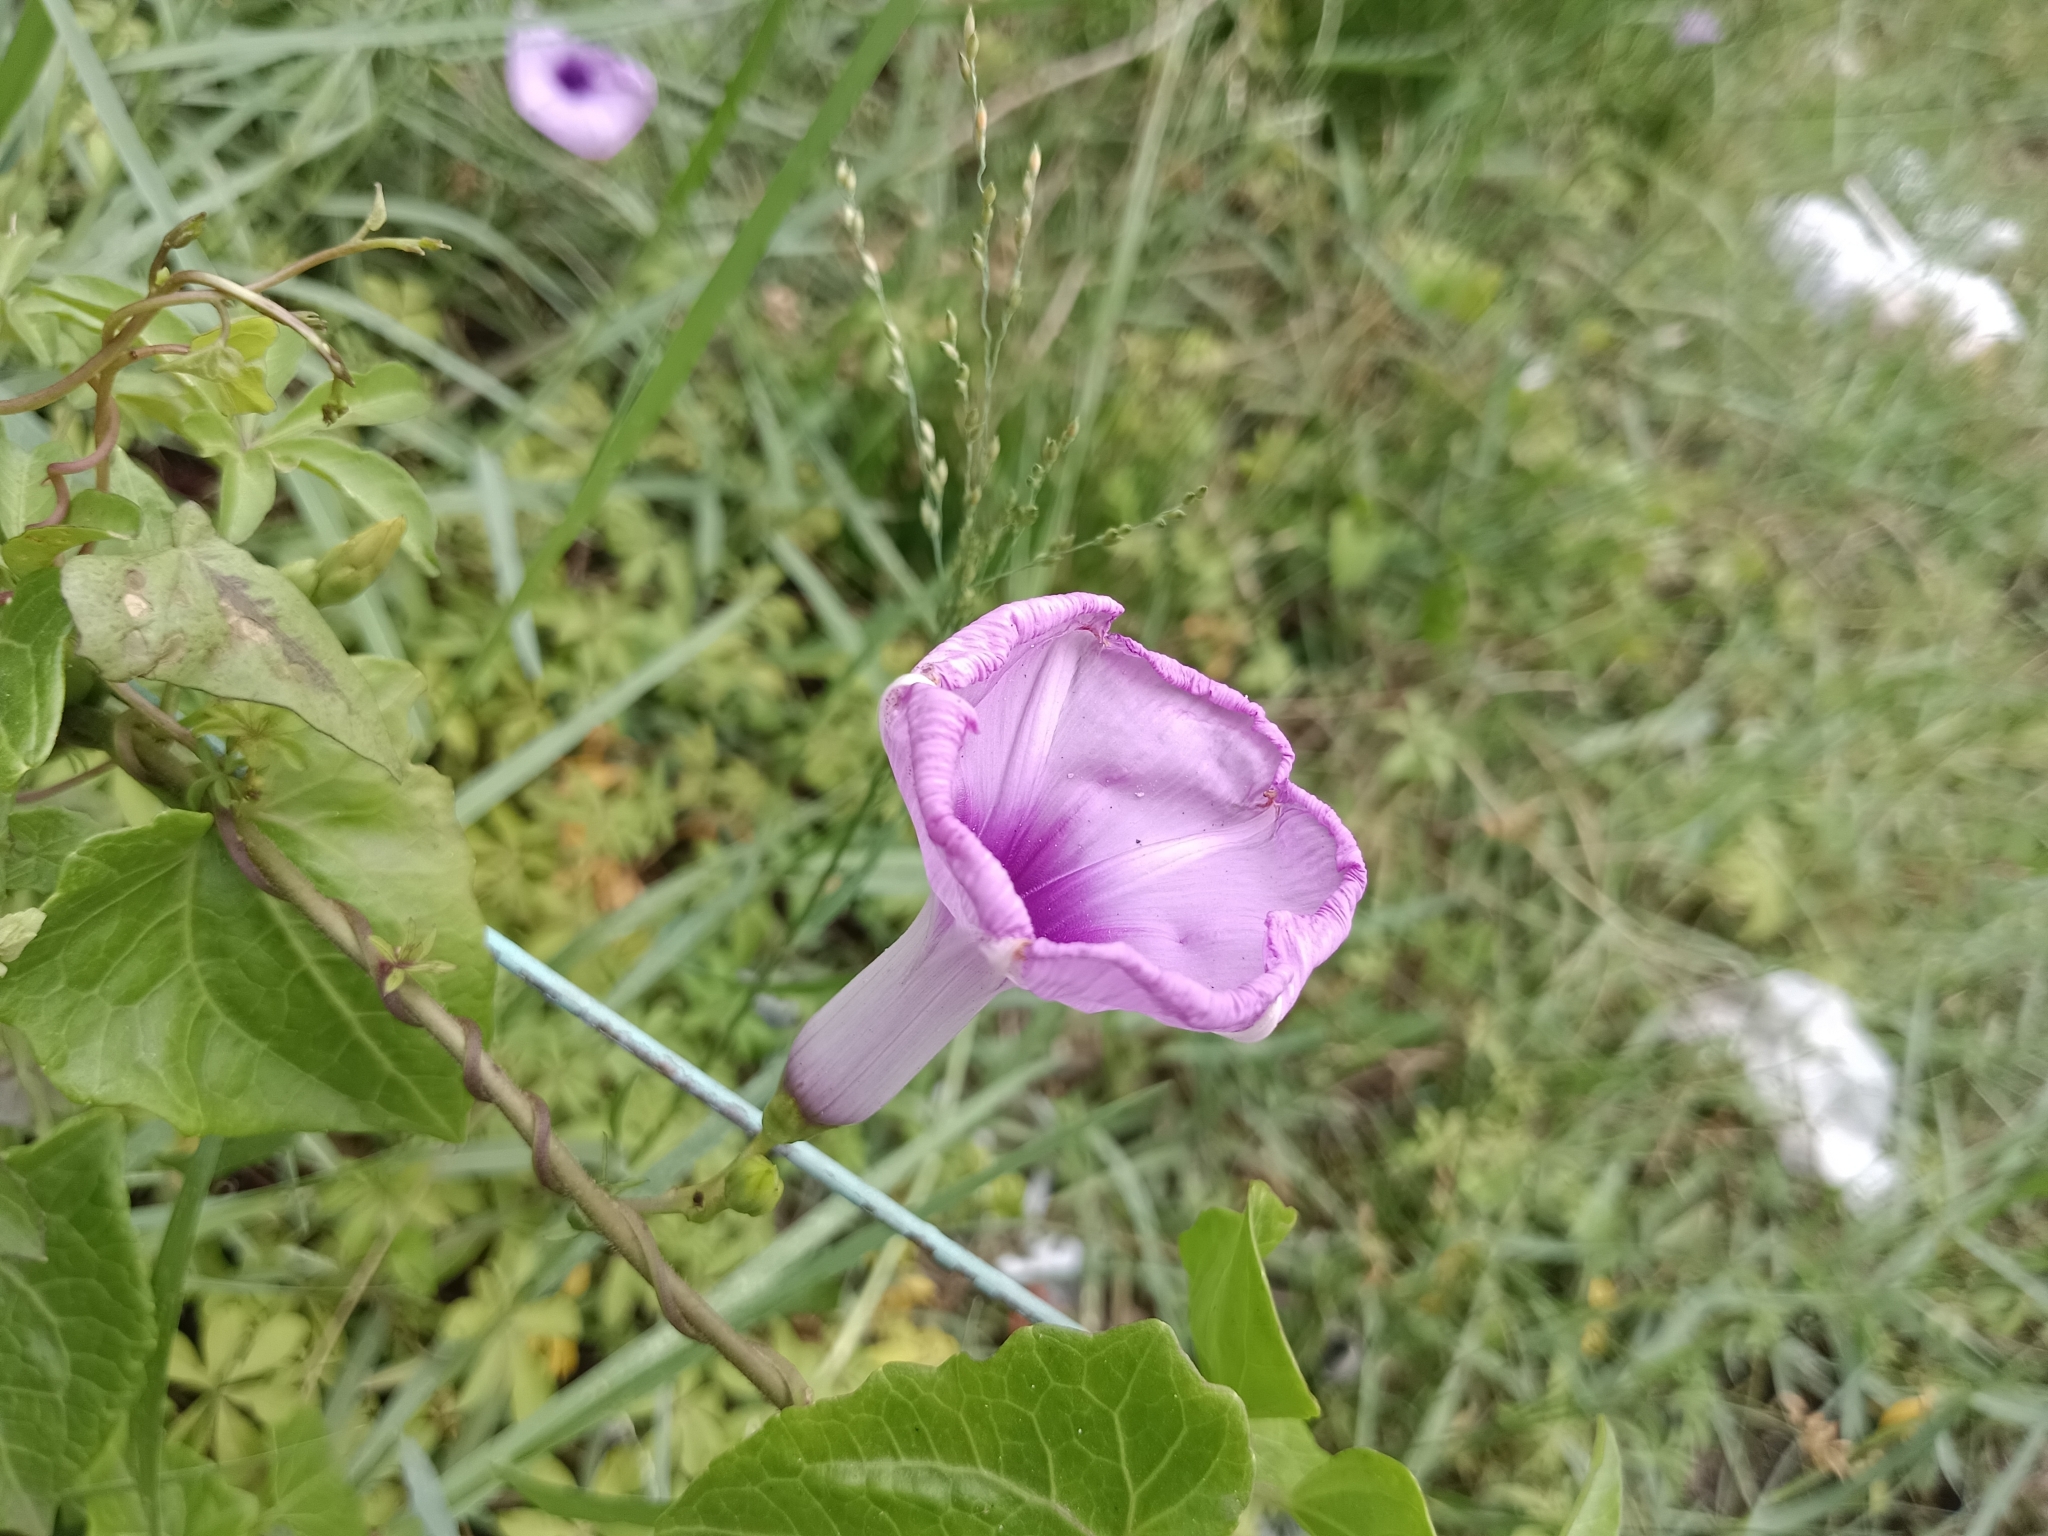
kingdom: Plantae
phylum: Tracheophyta
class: Magnoliopsida
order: Solanales
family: Convolvulaceae
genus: Ipomoea
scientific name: Ipomoea cairica
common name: Mile a minute vine
